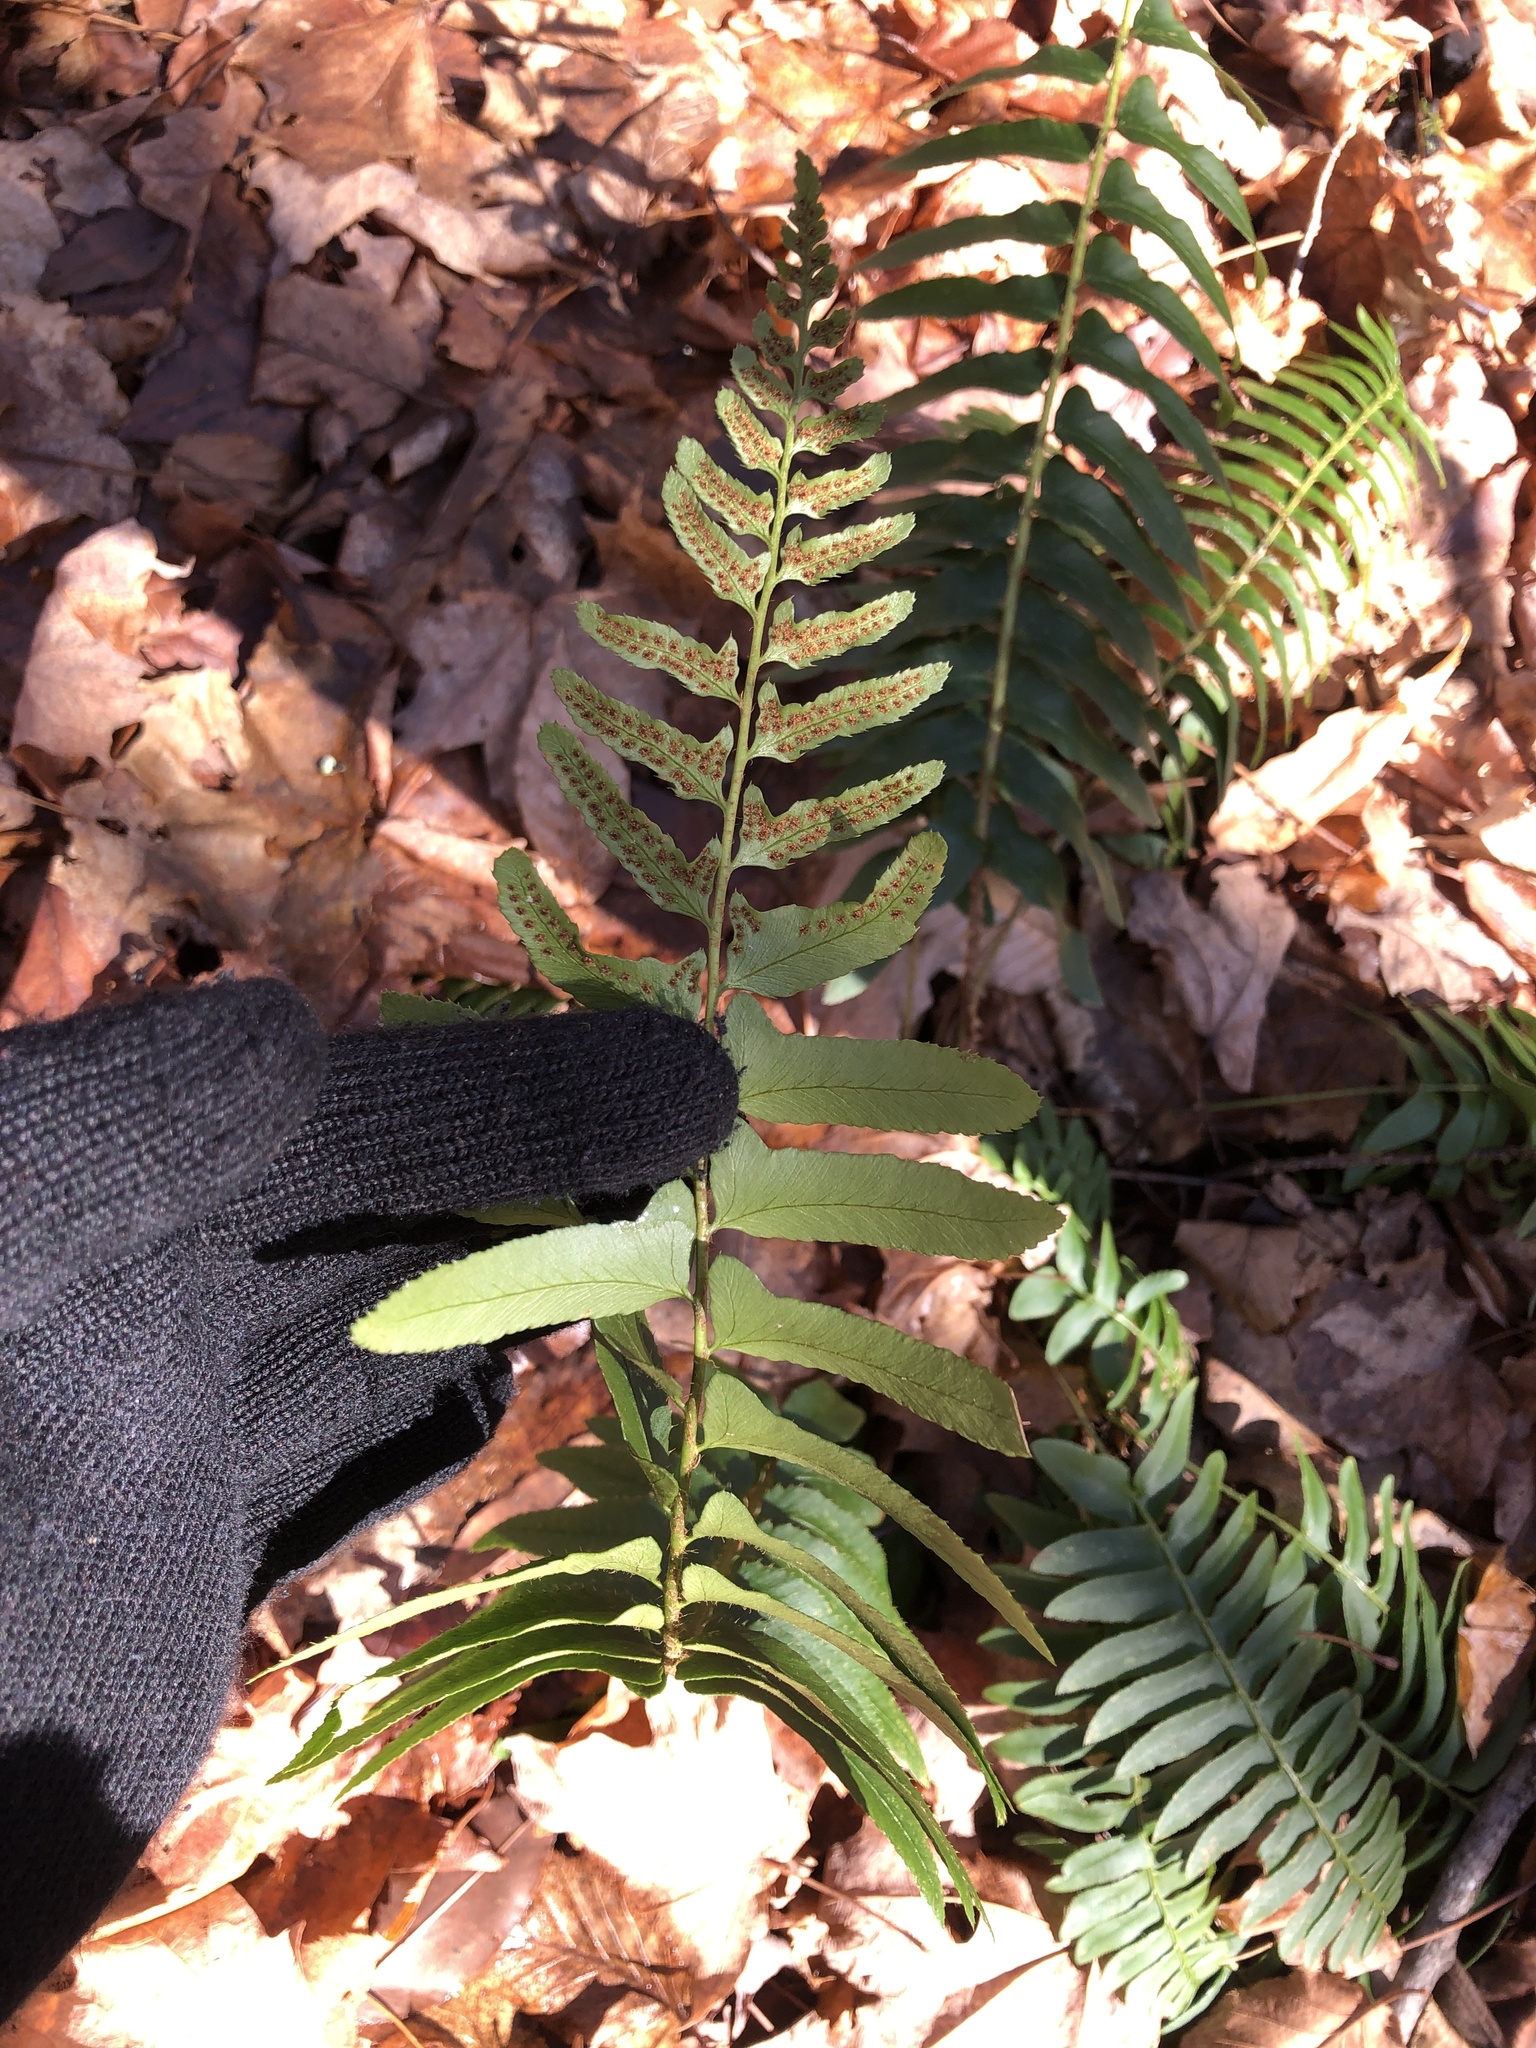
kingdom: Plantae
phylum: Tracheophyta
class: Polypodiopsida
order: Polypodiales
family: Dryopteridaceae
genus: Polystichum
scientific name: Polystichum acrostichoides
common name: Christmas fern
